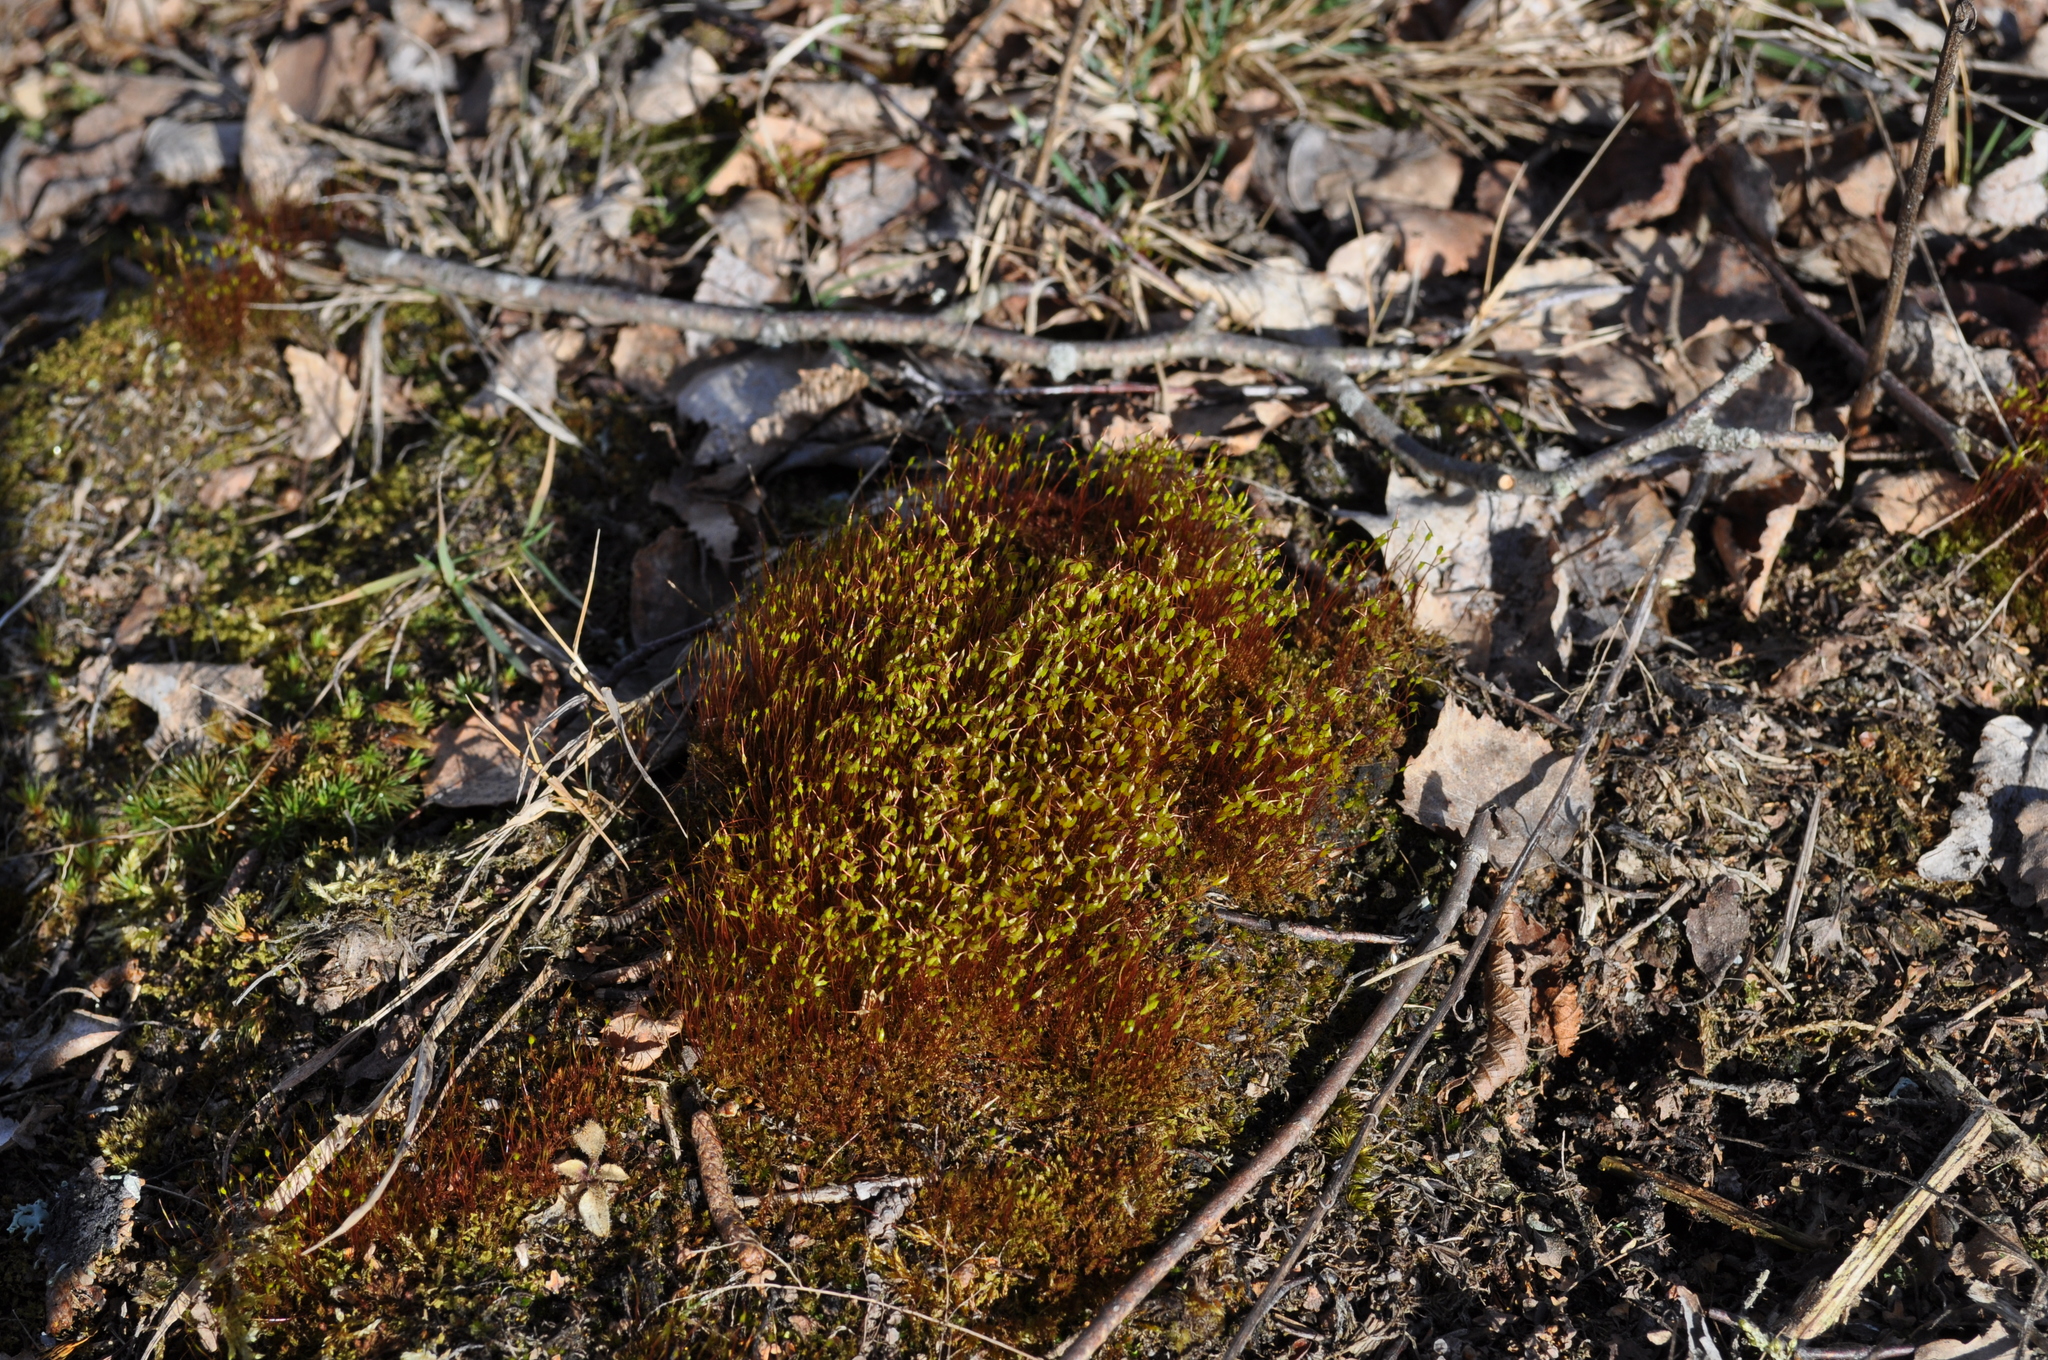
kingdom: Plantae
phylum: Bryophyta
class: Bryopsida
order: Dicranales
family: Ditrichaceae
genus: Ceratodon
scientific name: Ceratodon purpureus
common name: Redshank
